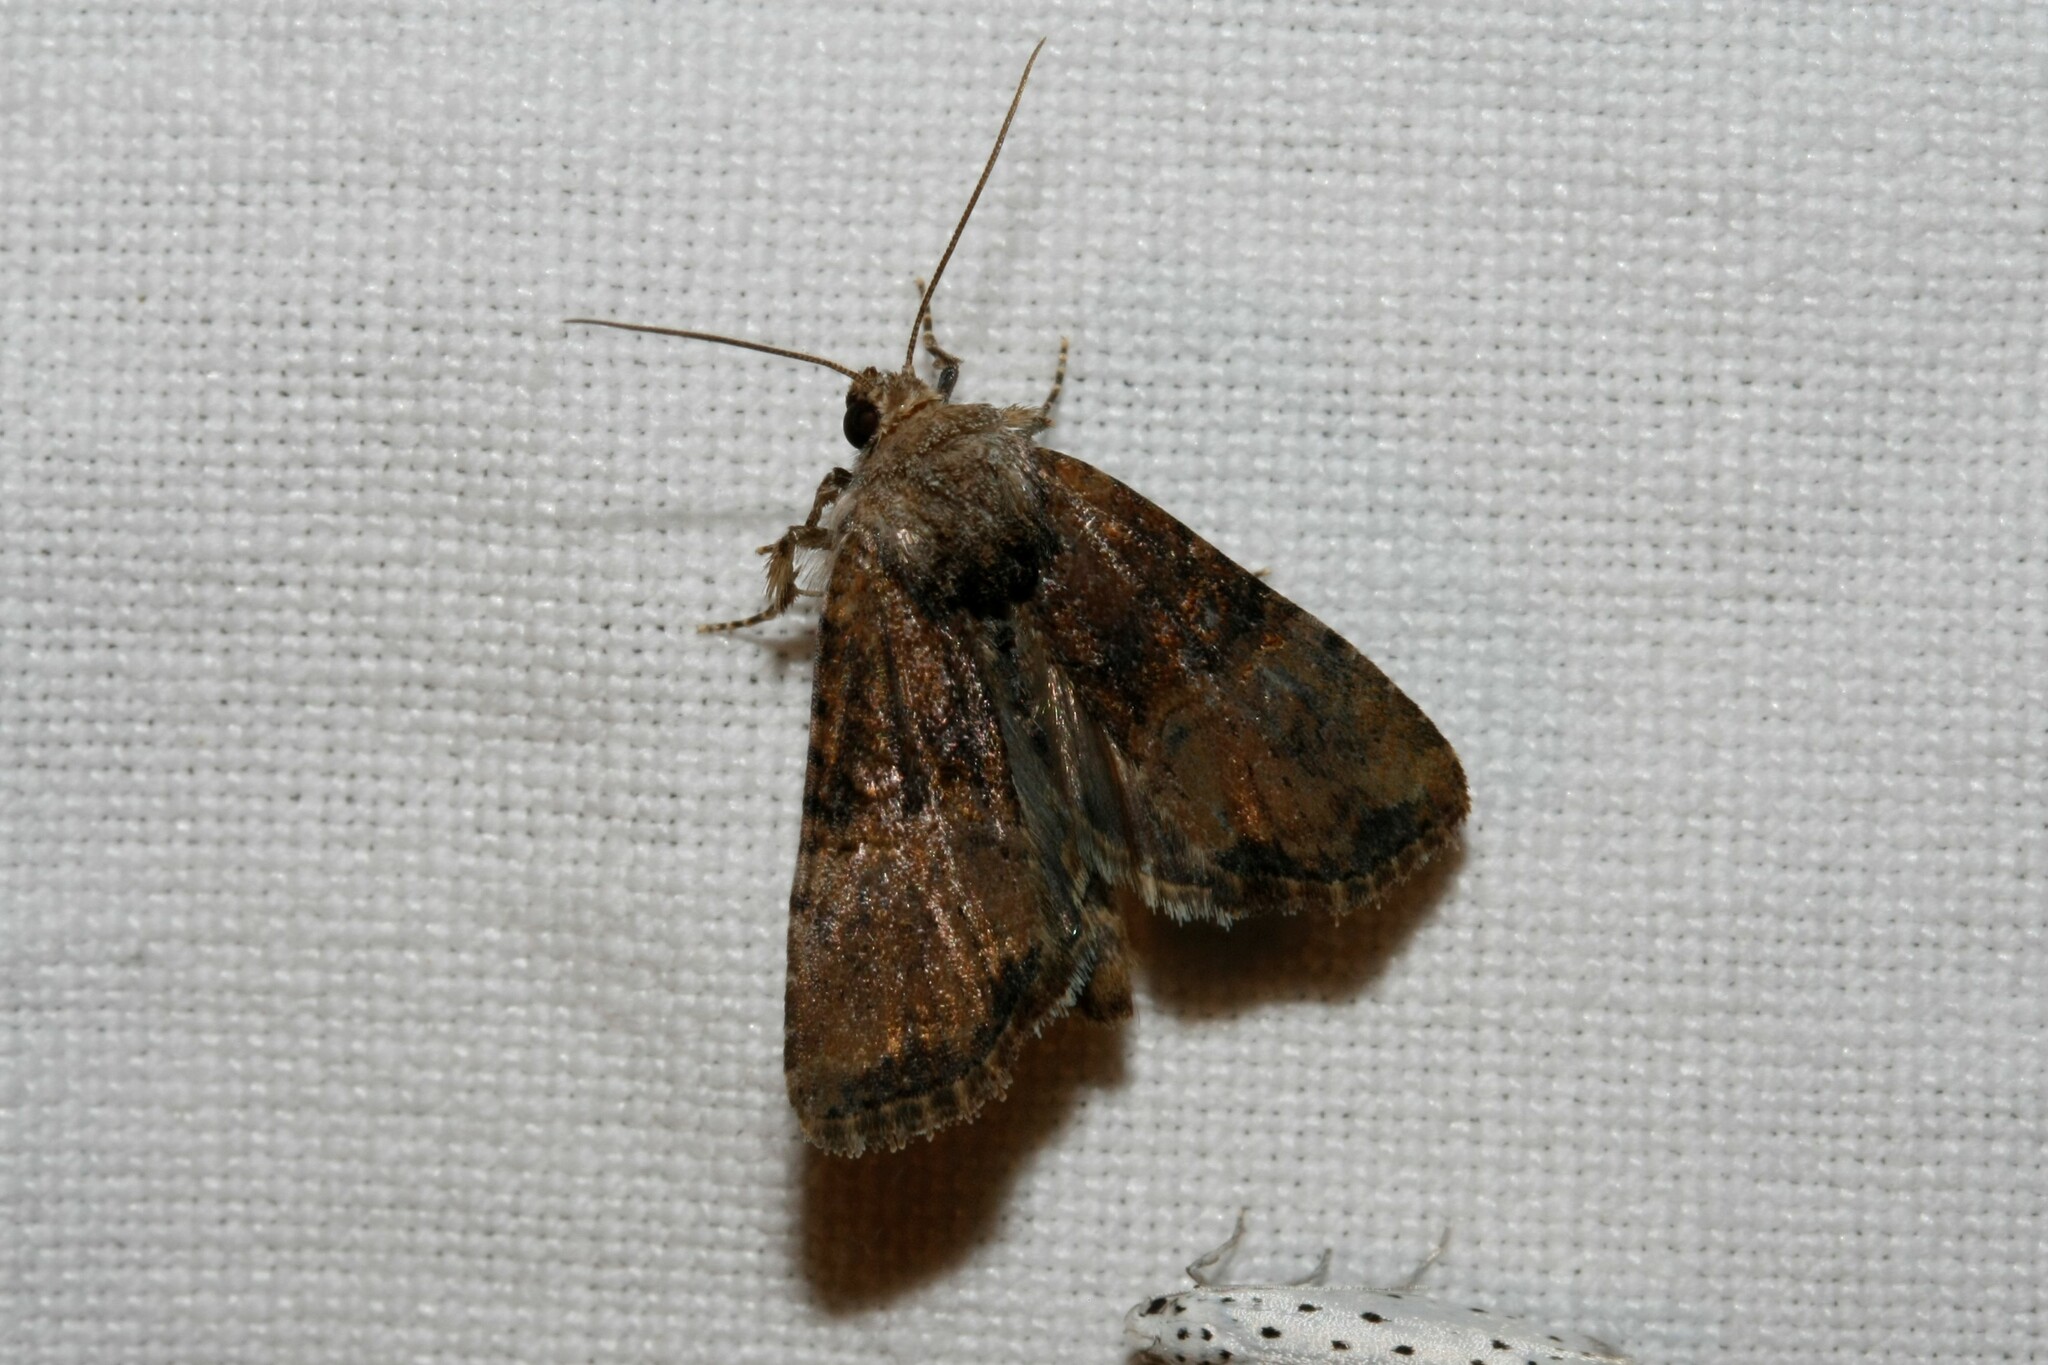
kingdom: Animalia
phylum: Arthropoda
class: Insecta
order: Lepidoptera
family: Noctuidae
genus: Mesoligia
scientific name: Mesoligia furuncula
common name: Cloaked minor
